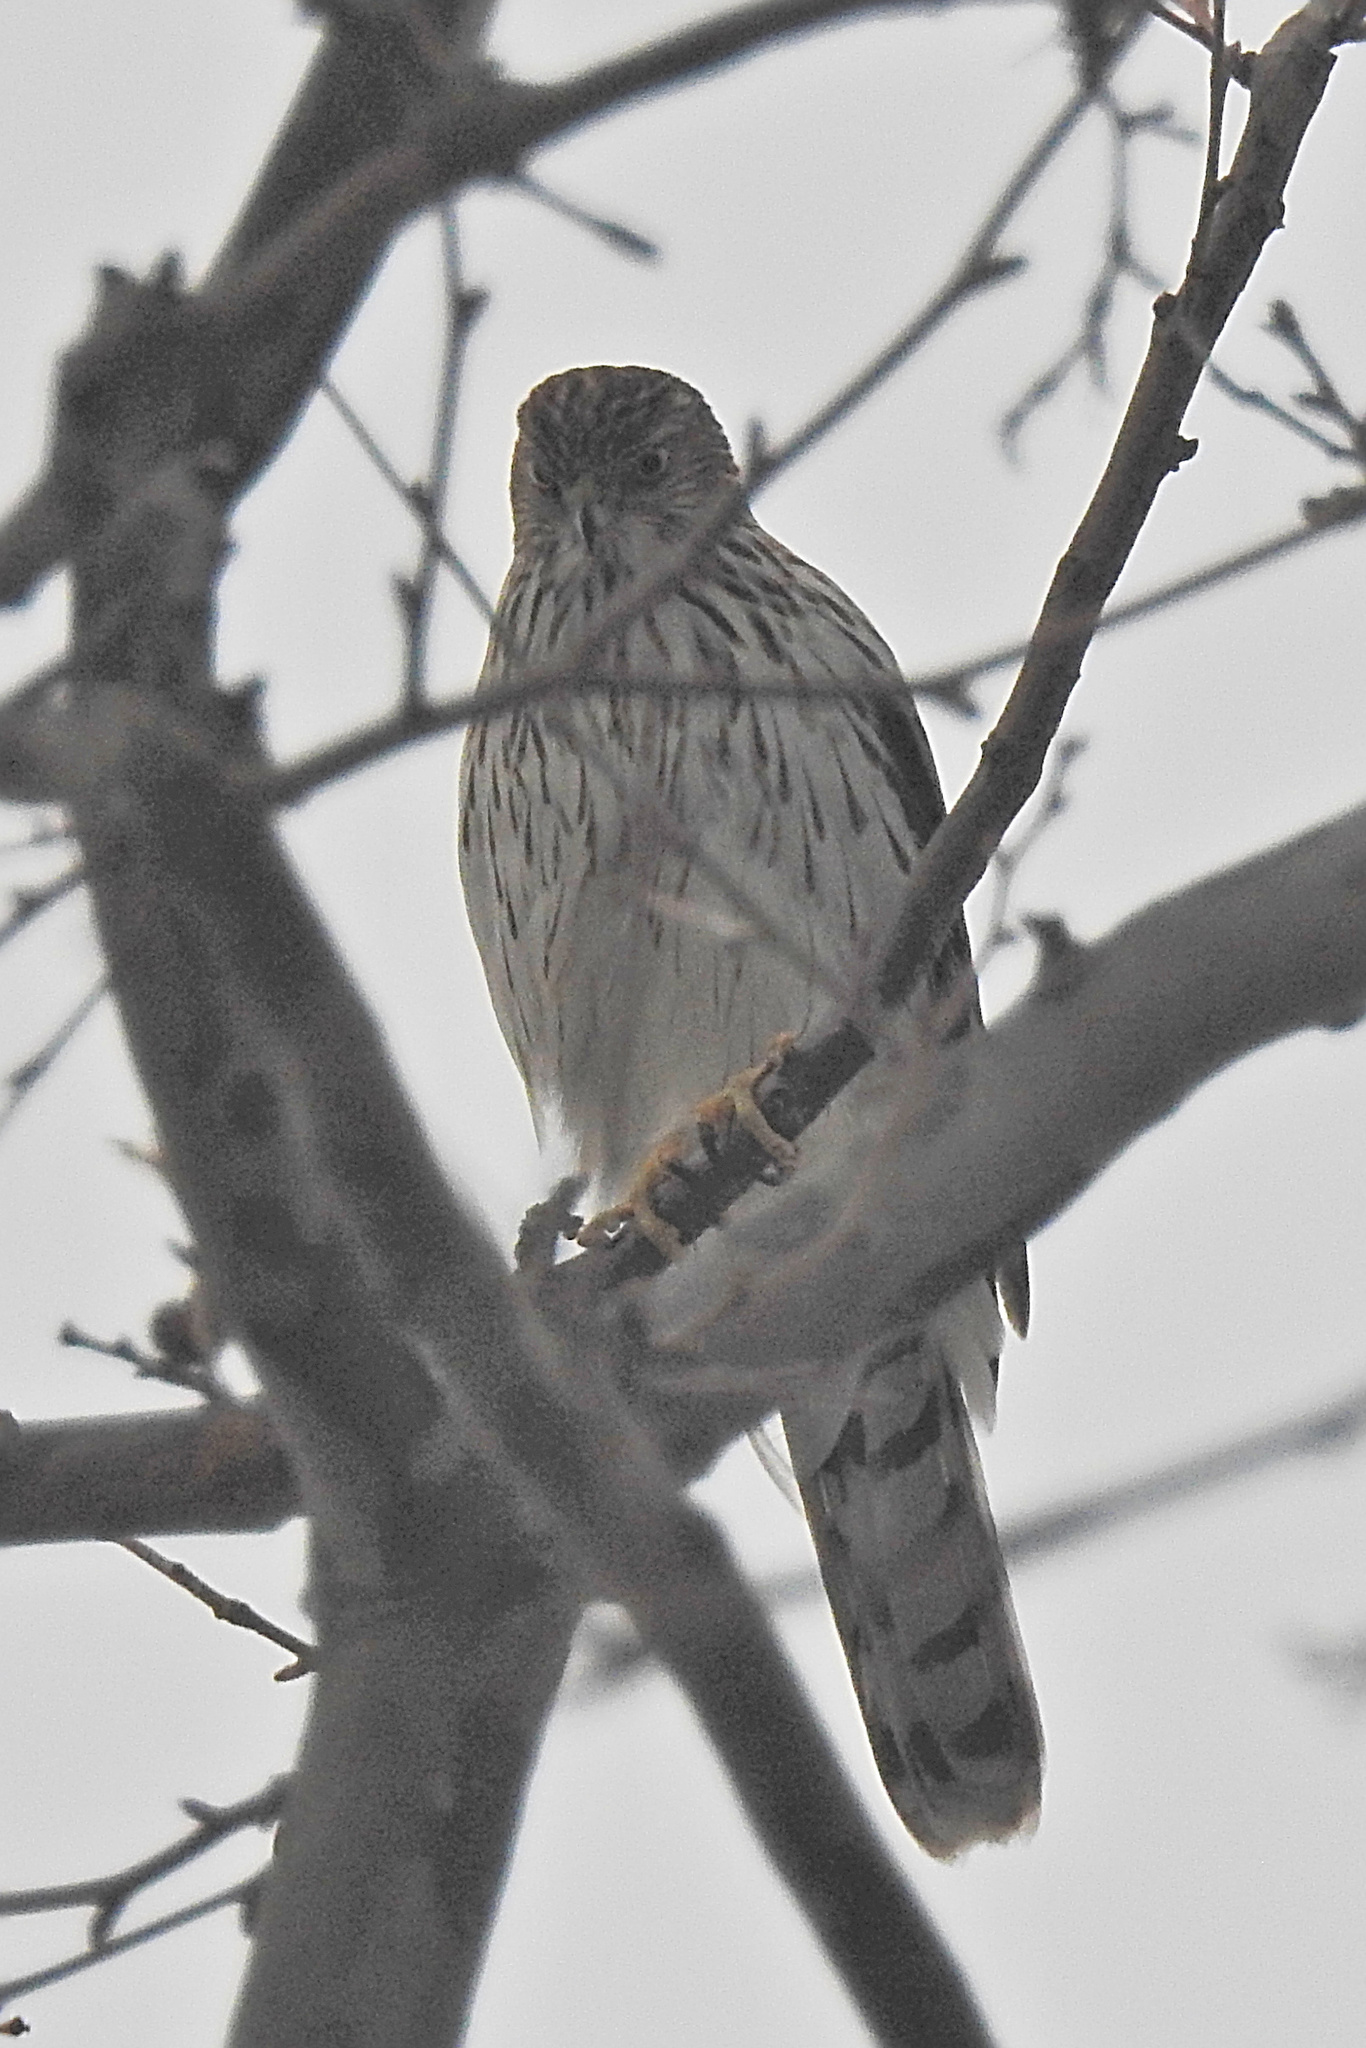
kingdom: Animalia
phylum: Chordata
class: Aves
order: Accipitriformes
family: Accipitridae
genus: Accipiter
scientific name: Accipiter cooperii
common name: Cooper's hawk
